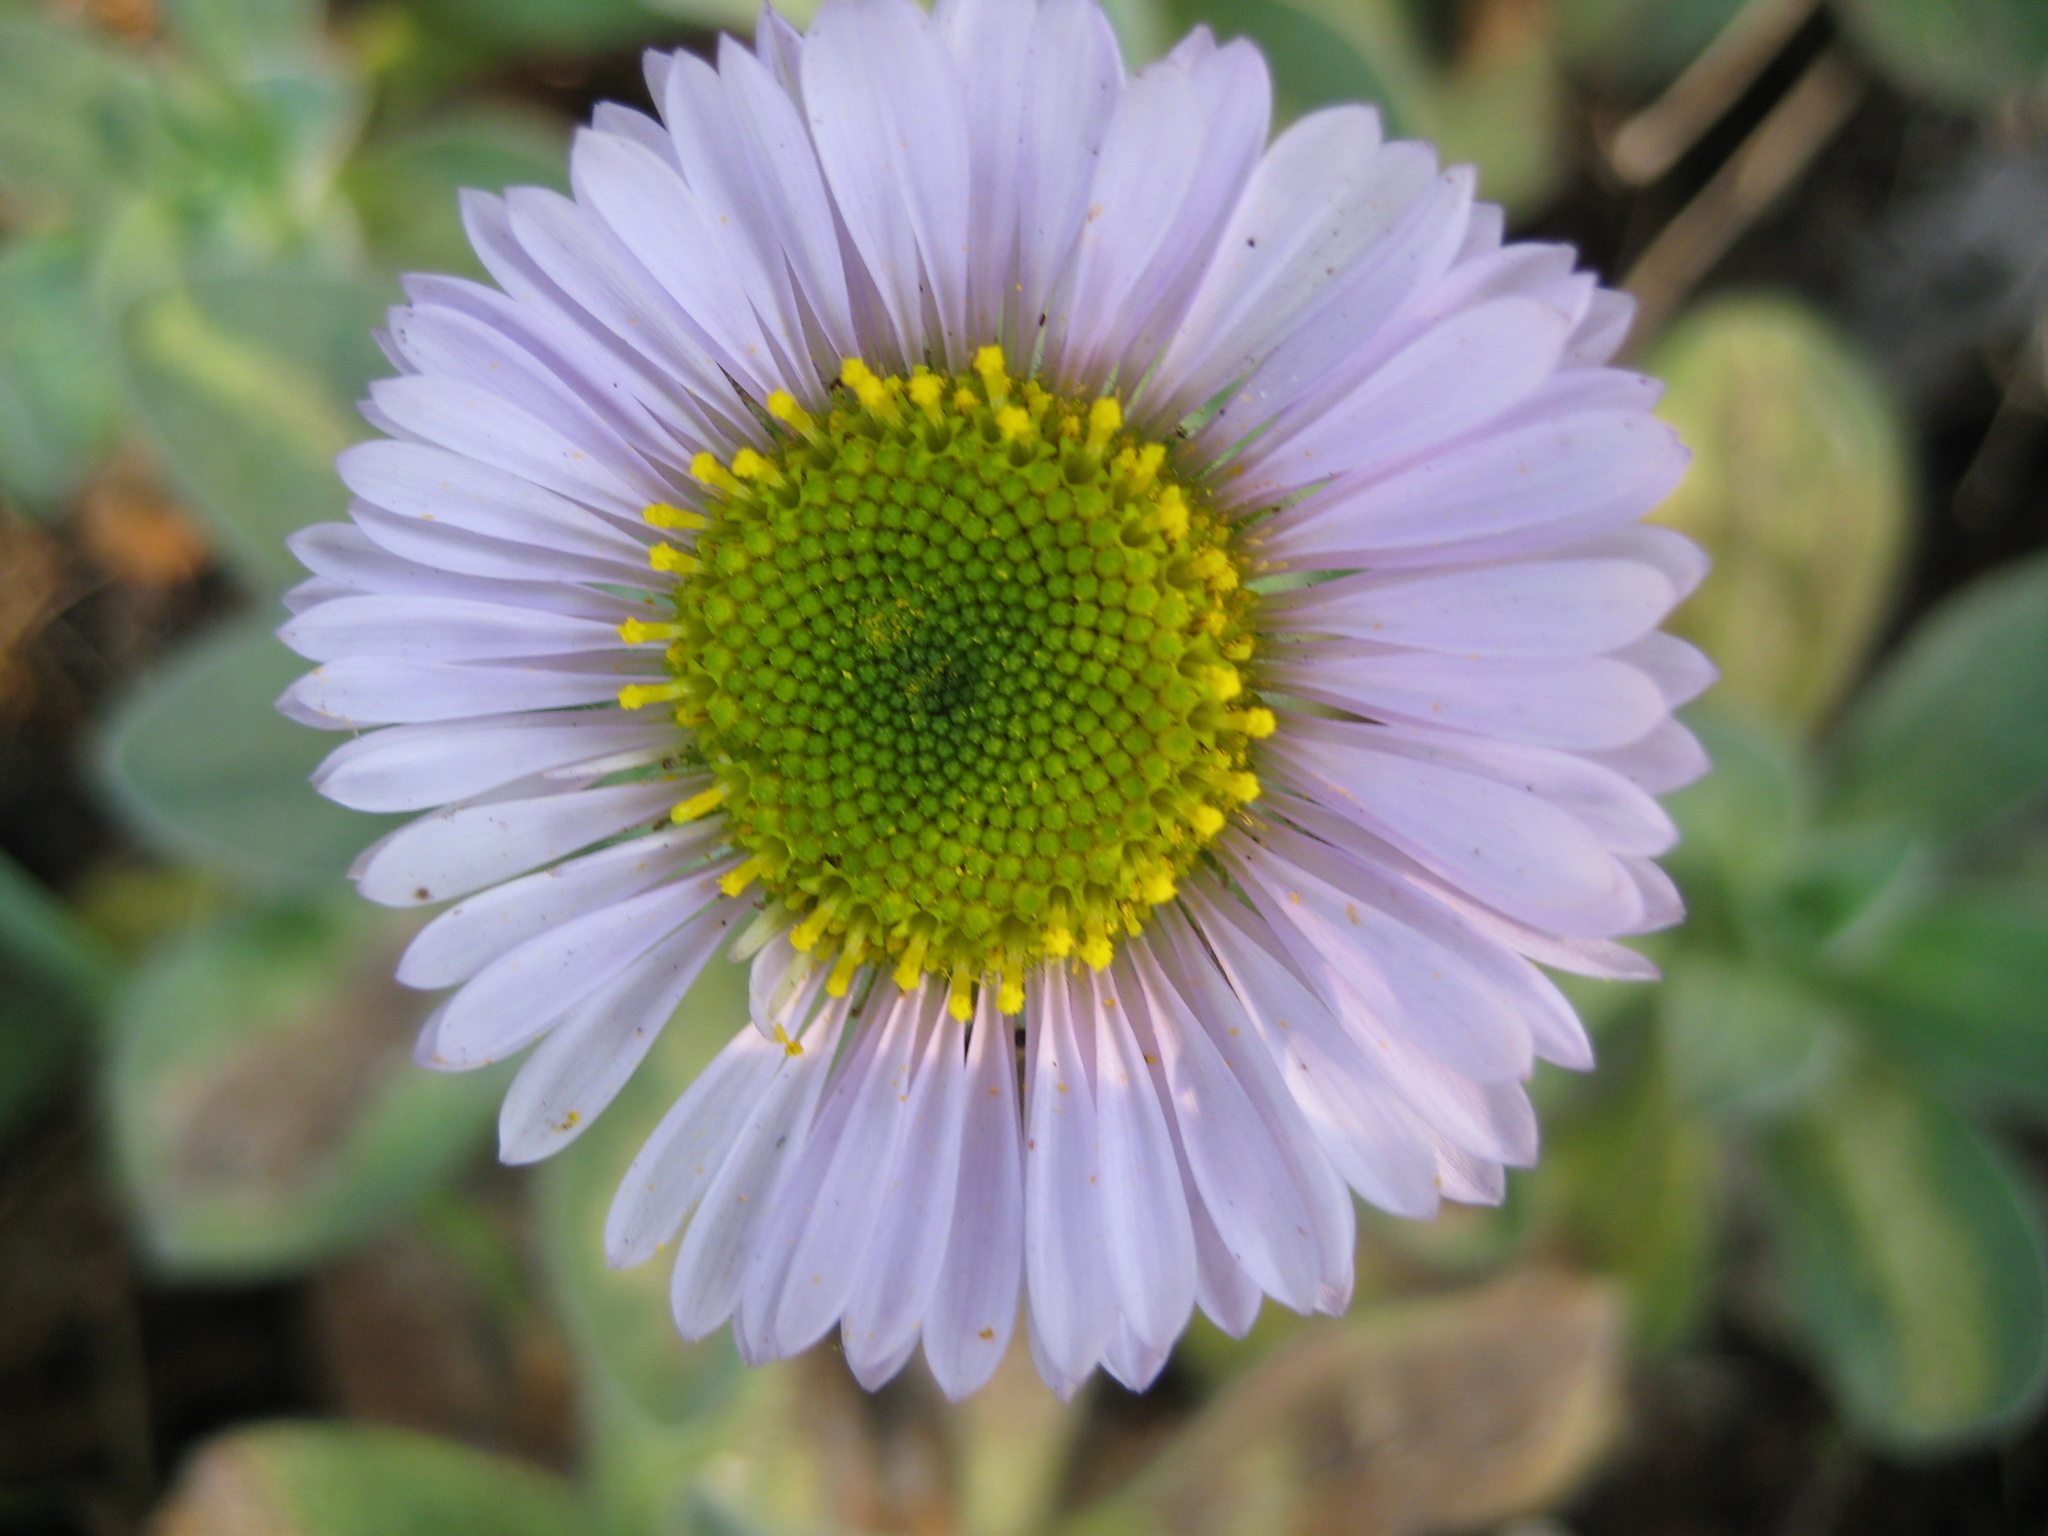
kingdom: Plantae
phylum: Tracheophyta
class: Magnoliopsida
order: Asterales
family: Asteraceae
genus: Erigeron
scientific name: Erigeron glaucus
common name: Seaside daisy
